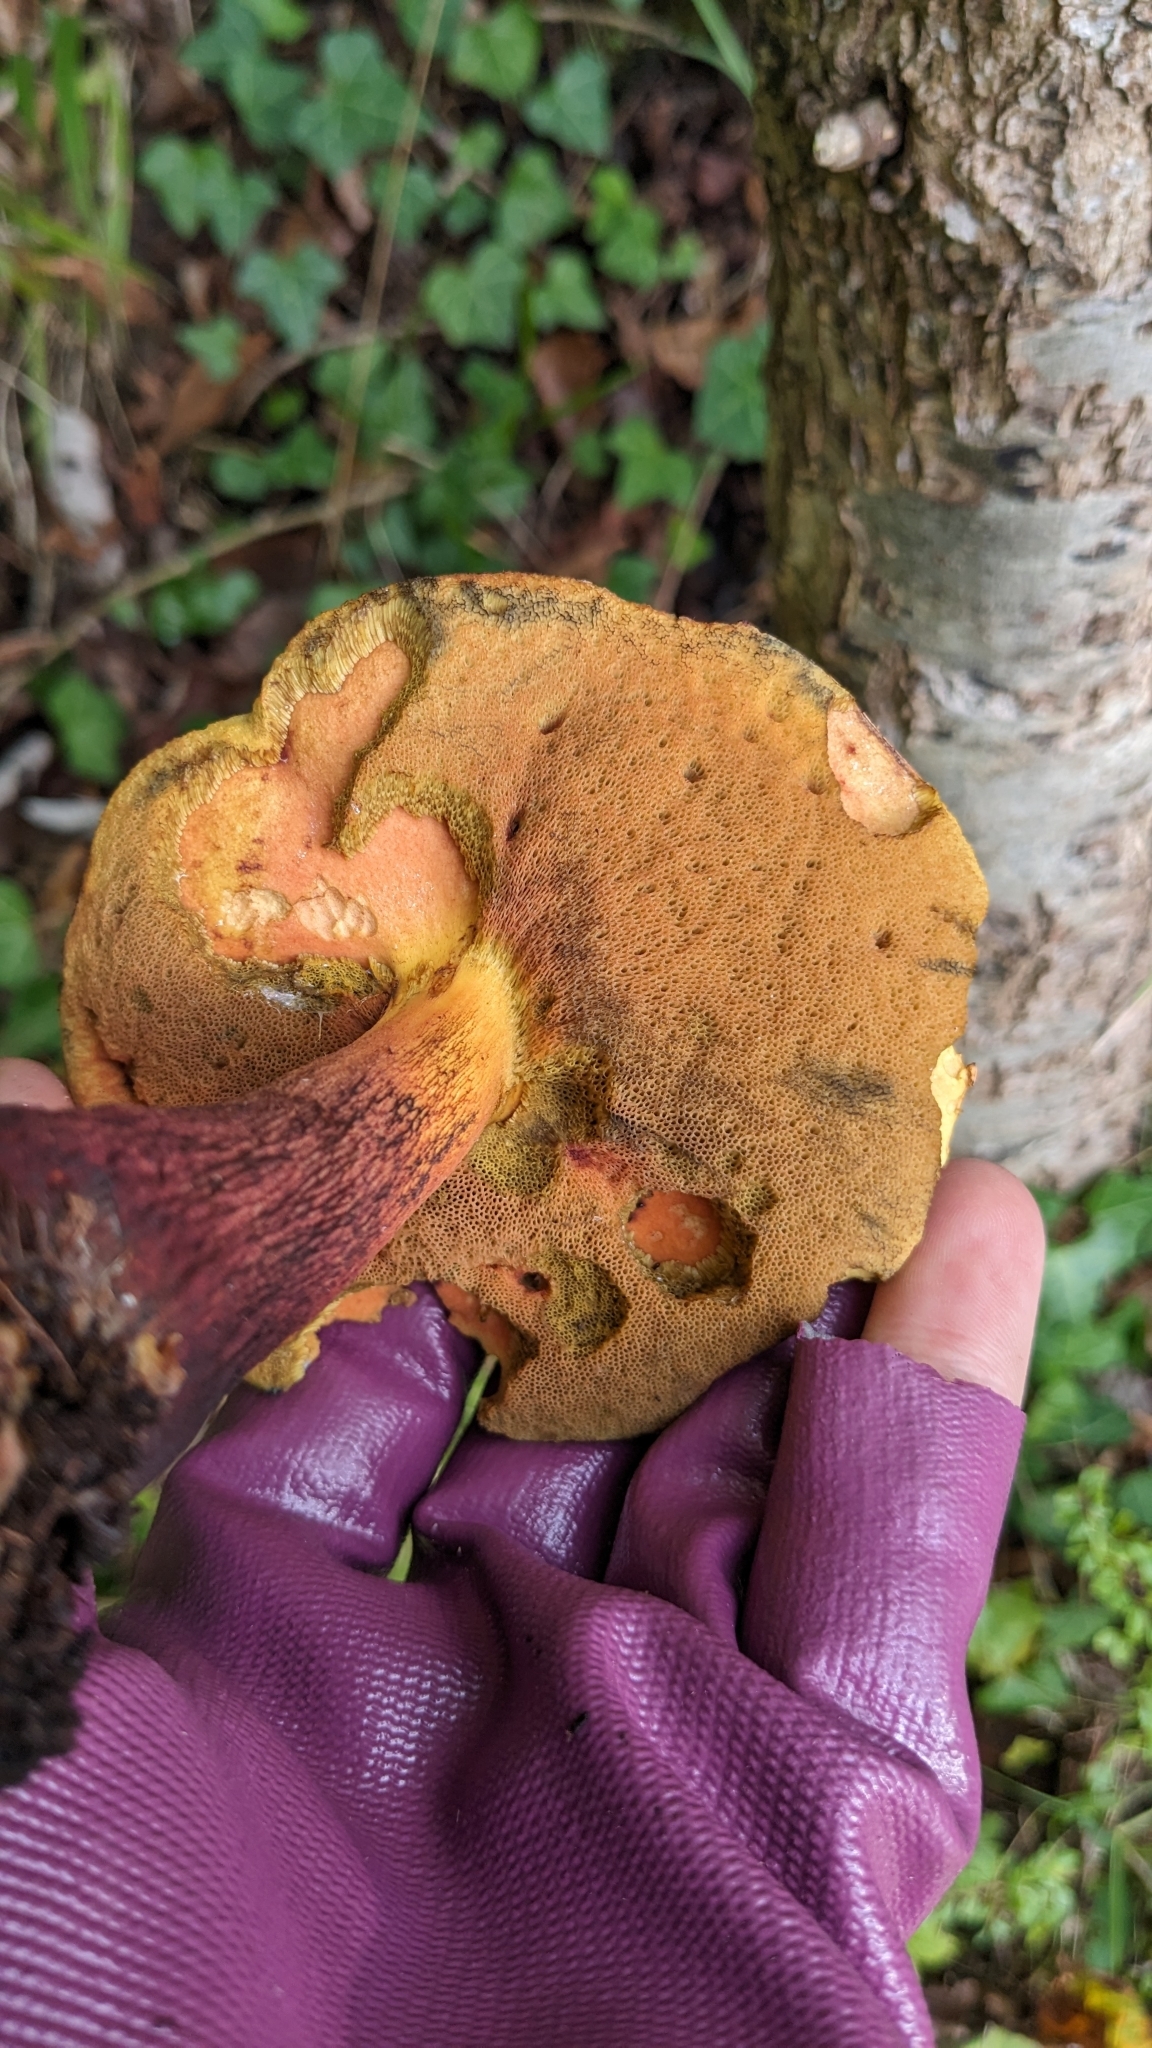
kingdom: Fungi
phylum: Basidiomycota
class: Agaricomycetes
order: Boletales
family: Boletaceae
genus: Suillellus
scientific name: Suillellus luridus
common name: Lurid bolete
